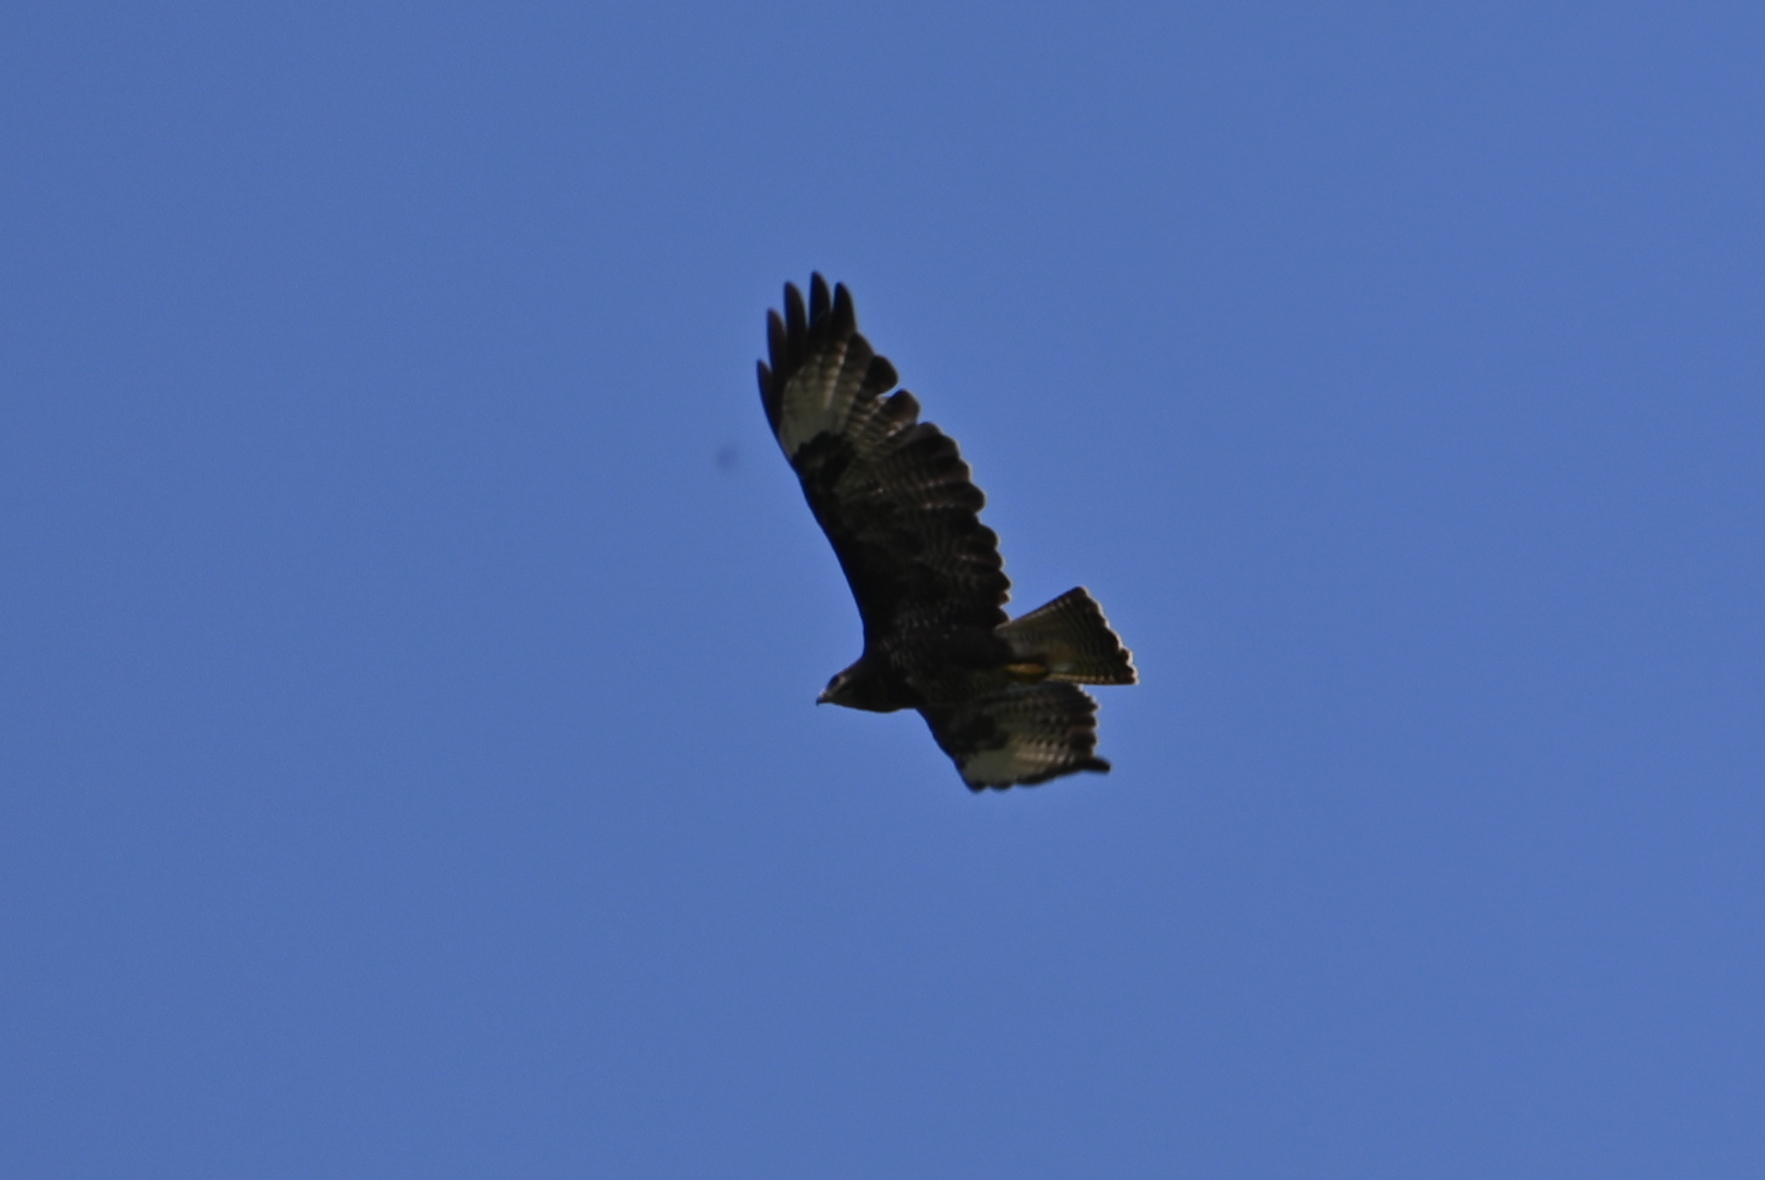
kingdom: Animalia
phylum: Chordata
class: Aves
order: Accipitriformes
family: Accipitridae
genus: Buteo
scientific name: Buteo buteo
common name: Common buzzard
